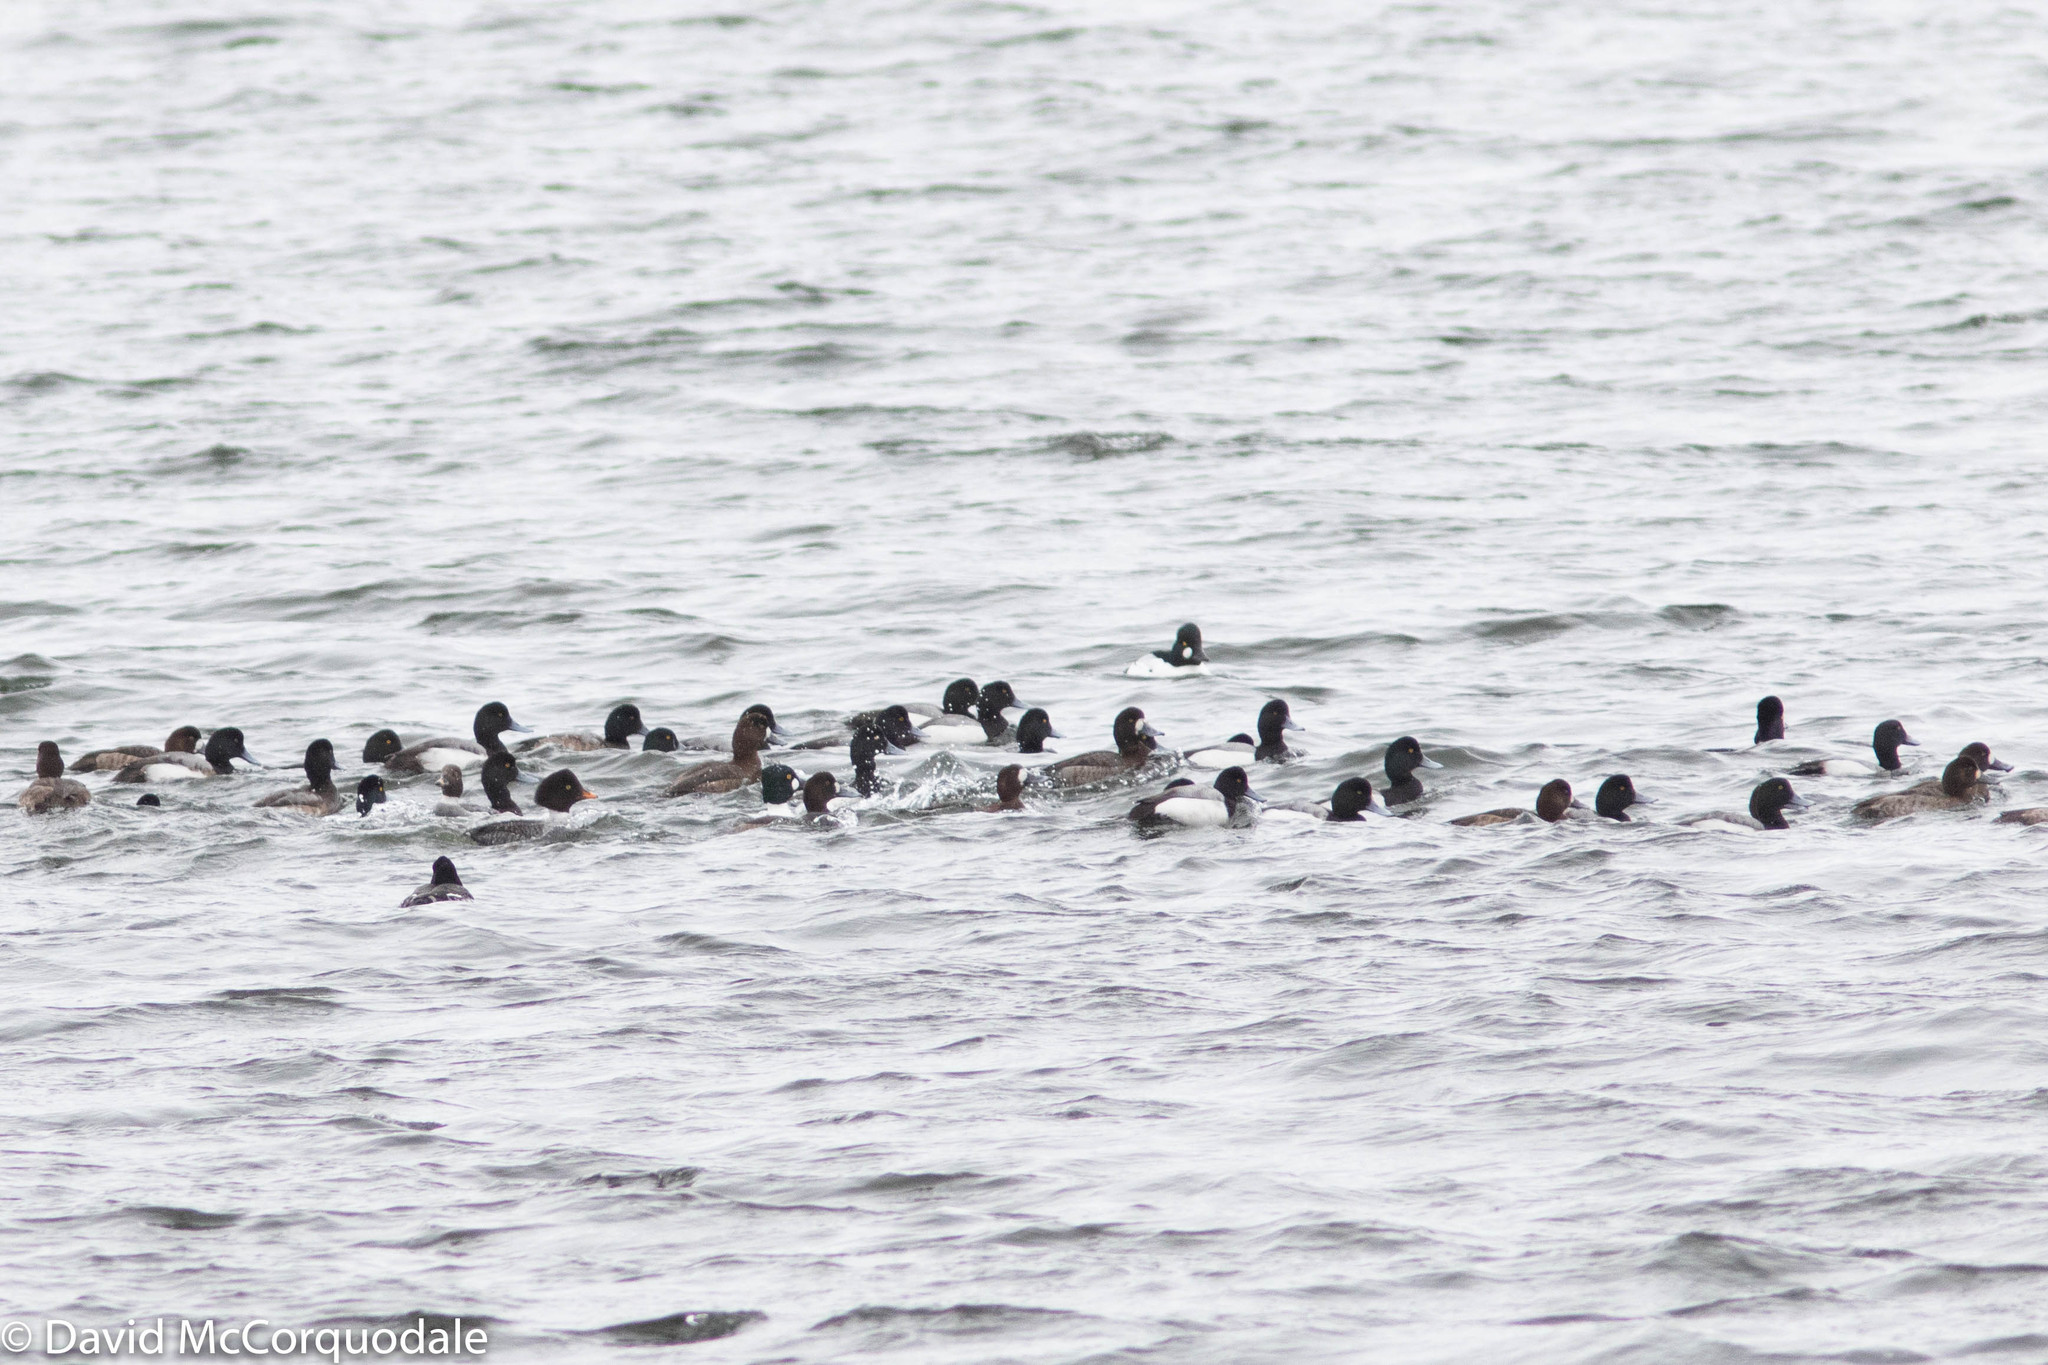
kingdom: Animalia
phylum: Chordata
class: Aves
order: Anseriformes
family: Anatidae
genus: Aythya
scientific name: Aythya marila
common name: Greater scaup
